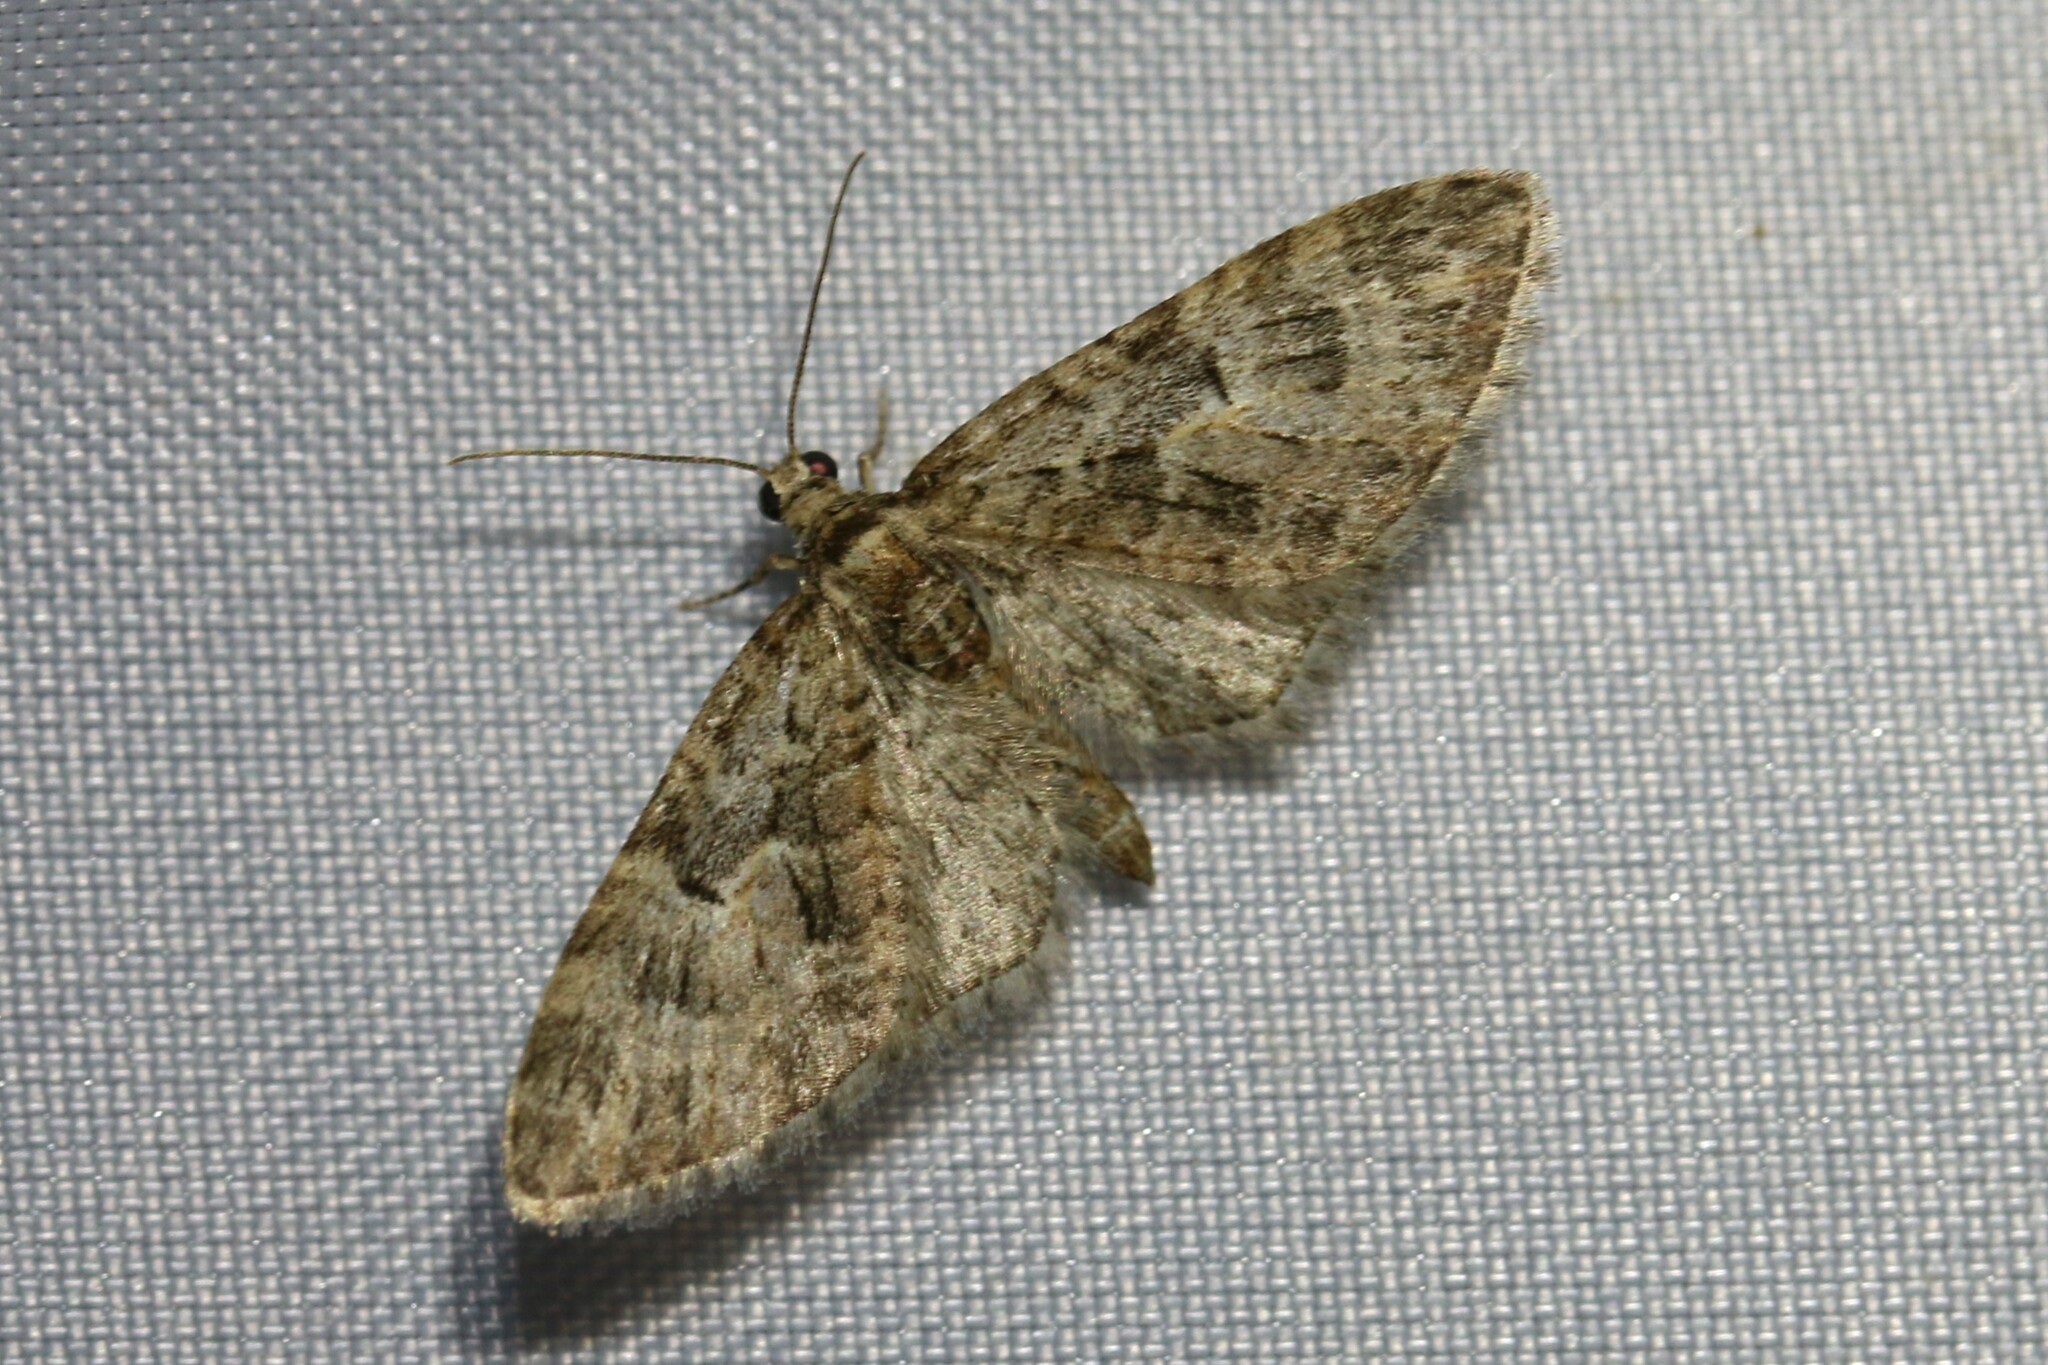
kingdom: Animalia
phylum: Arthropoda
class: Insecta
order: Lepidoptera
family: Geometridae
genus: Eupithecia
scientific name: Eupithecia abbreviata
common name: Brindled pug
